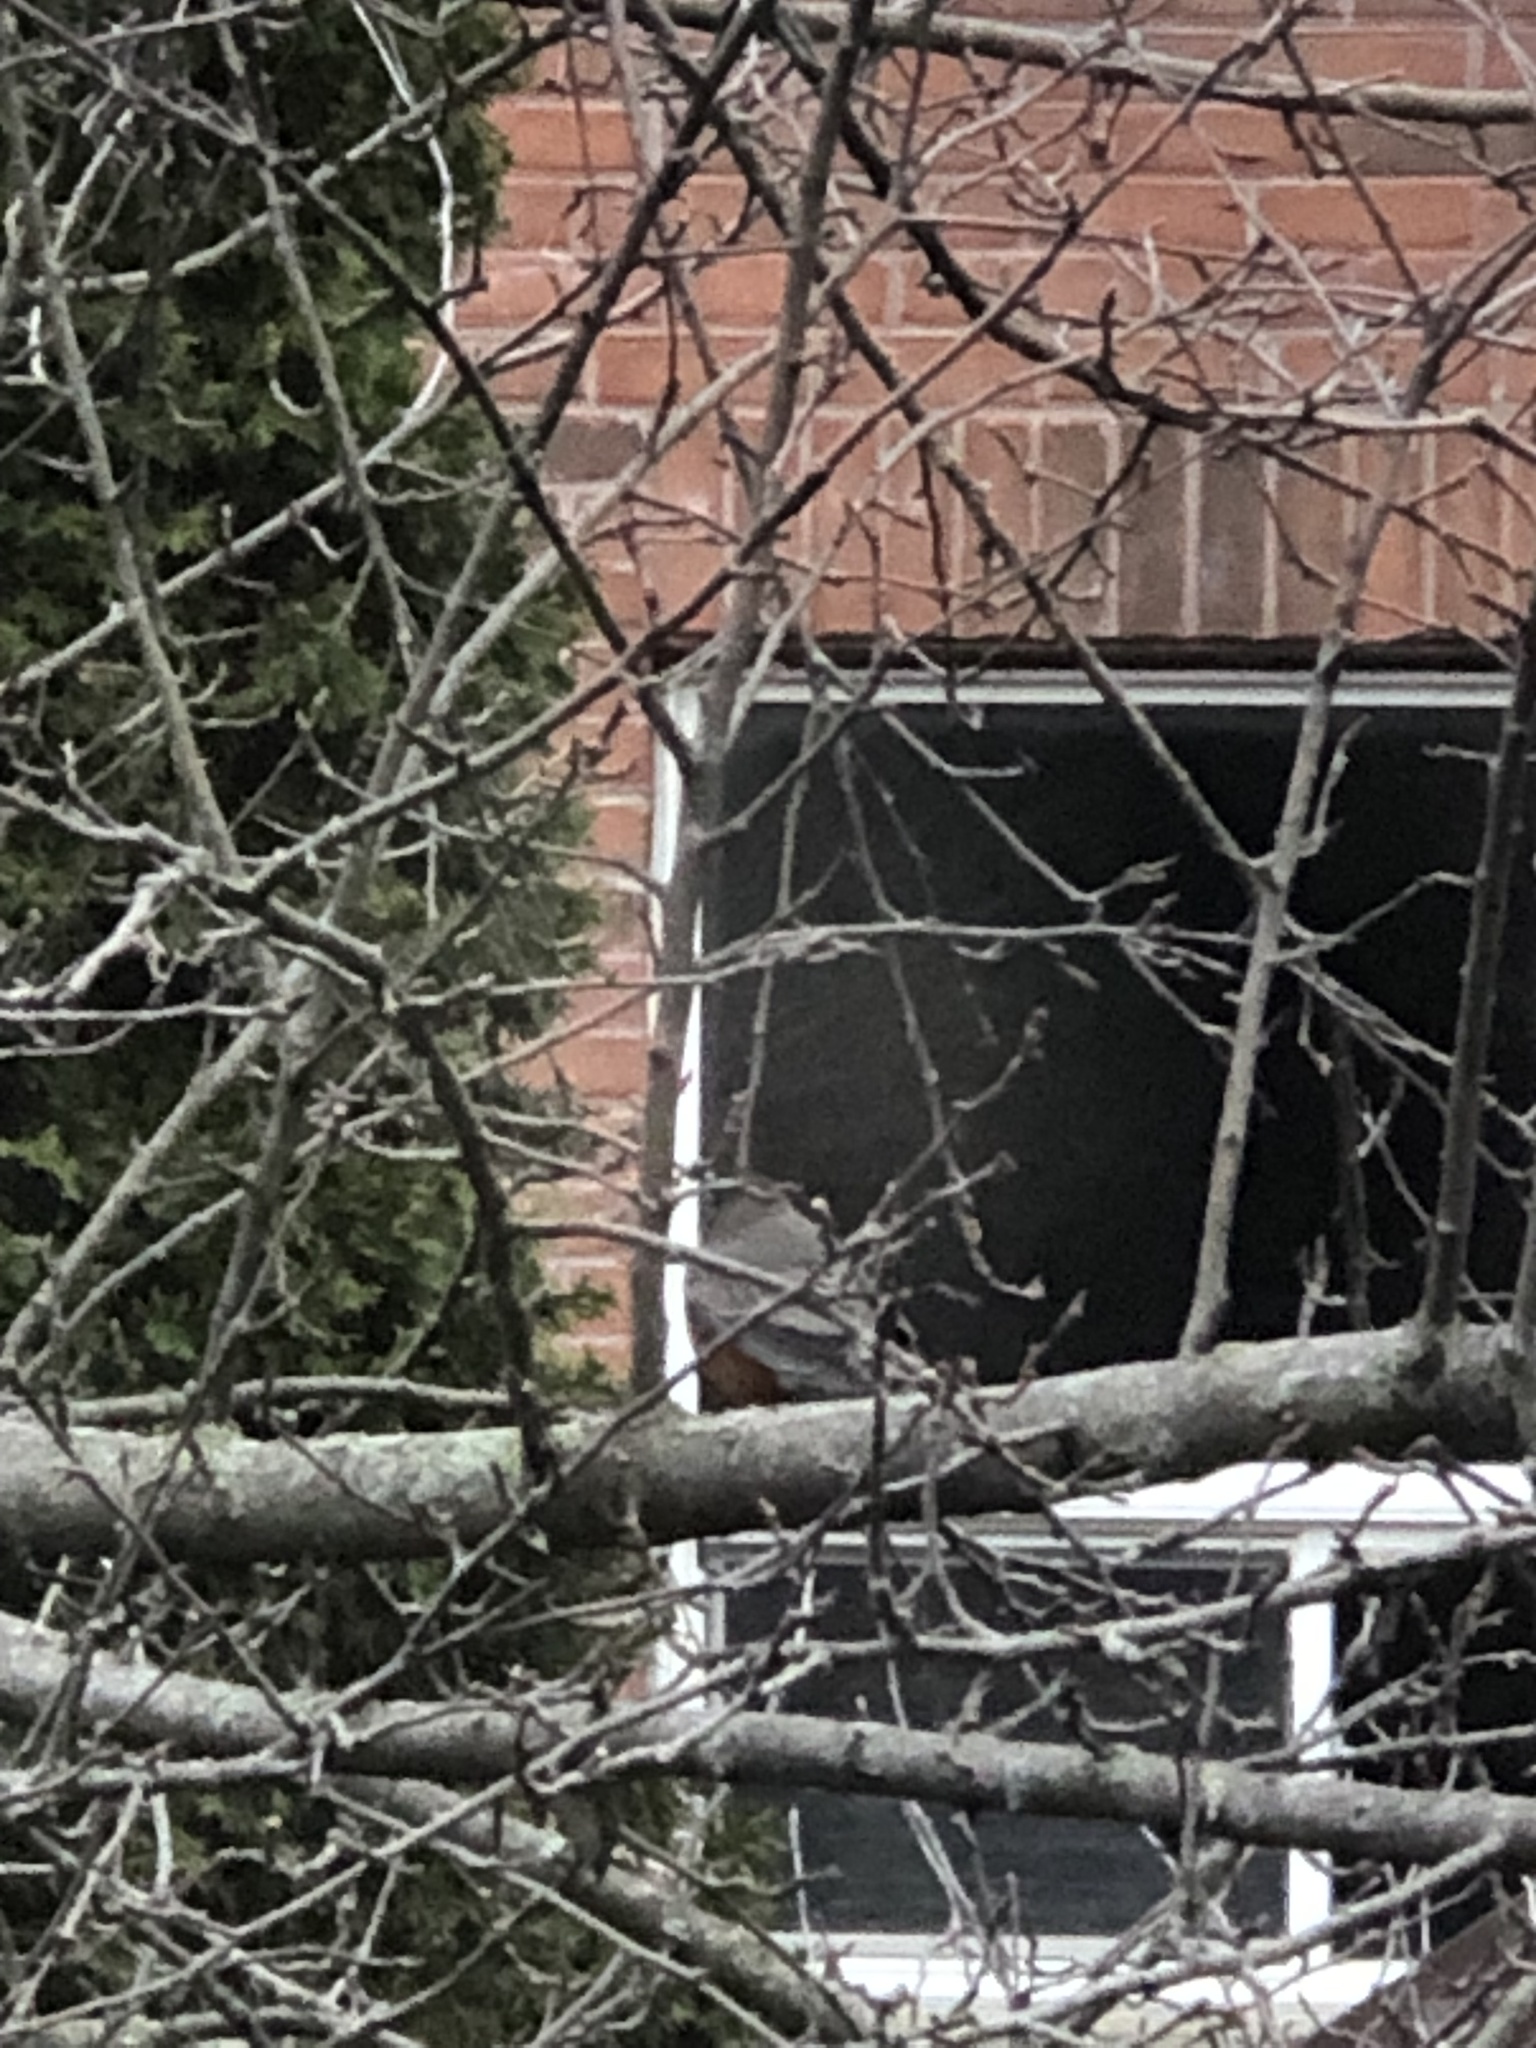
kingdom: Animalia
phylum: Chordata
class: Aves
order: Passeriformes
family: Turdidae
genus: Turdus
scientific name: Turdus migratorius
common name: American robin
